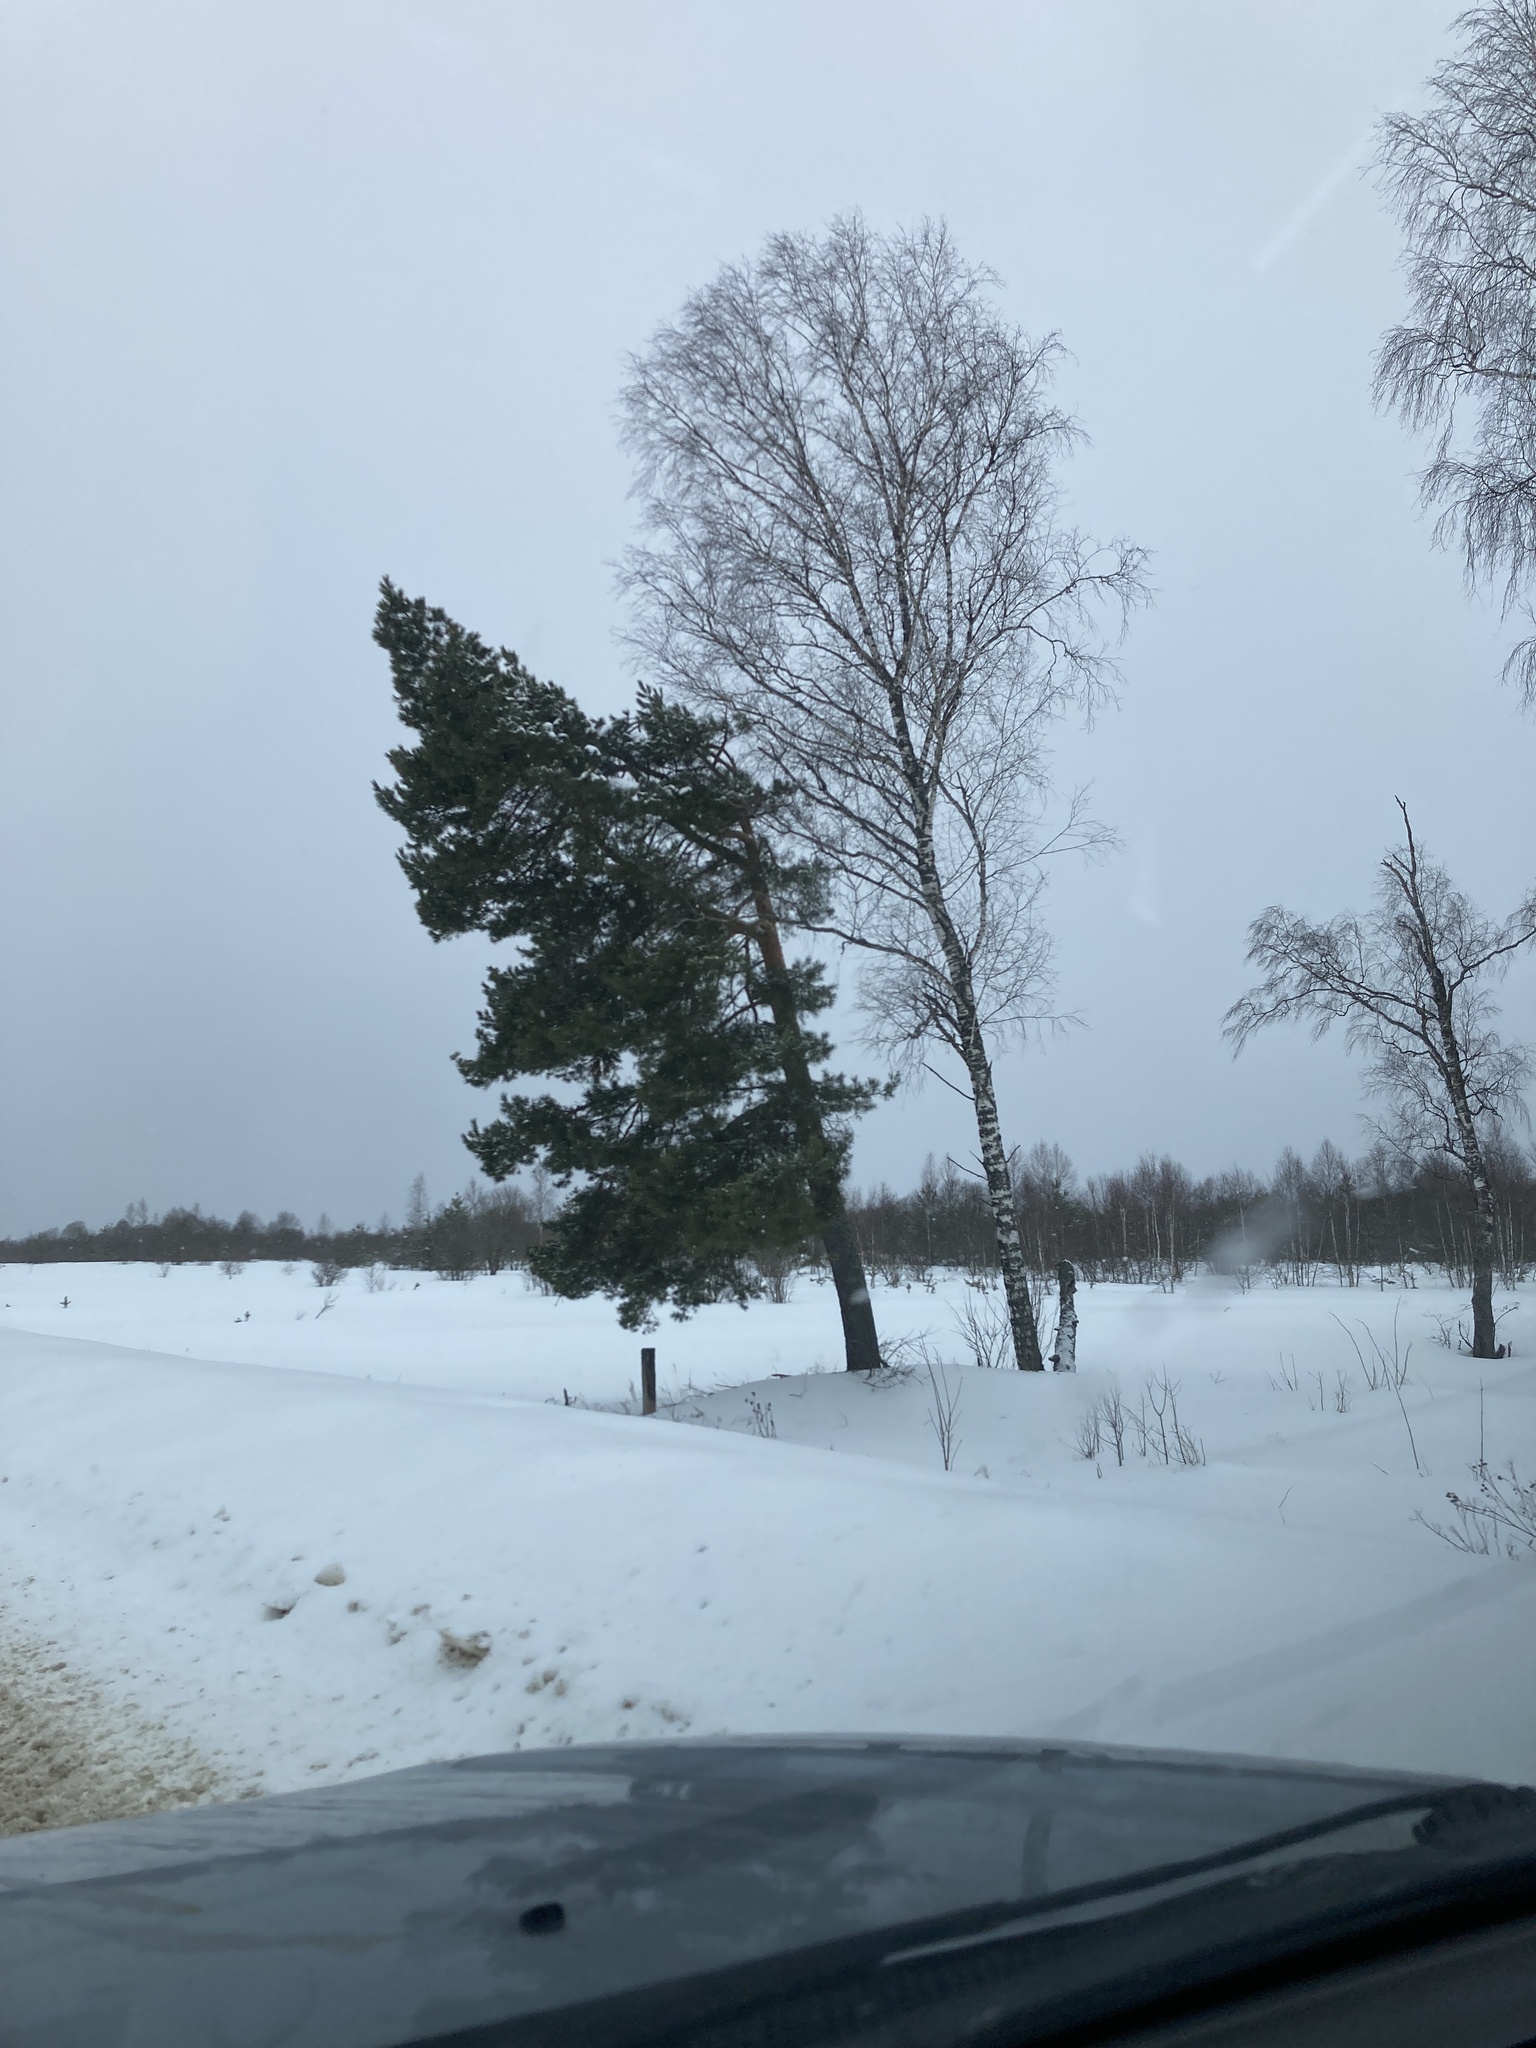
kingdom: Plantae
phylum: Tracheophyta
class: Pinopsida
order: Pinales
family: Pinaceae
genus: Pinus
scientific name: Pinus sylvestris
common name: Scots pine
